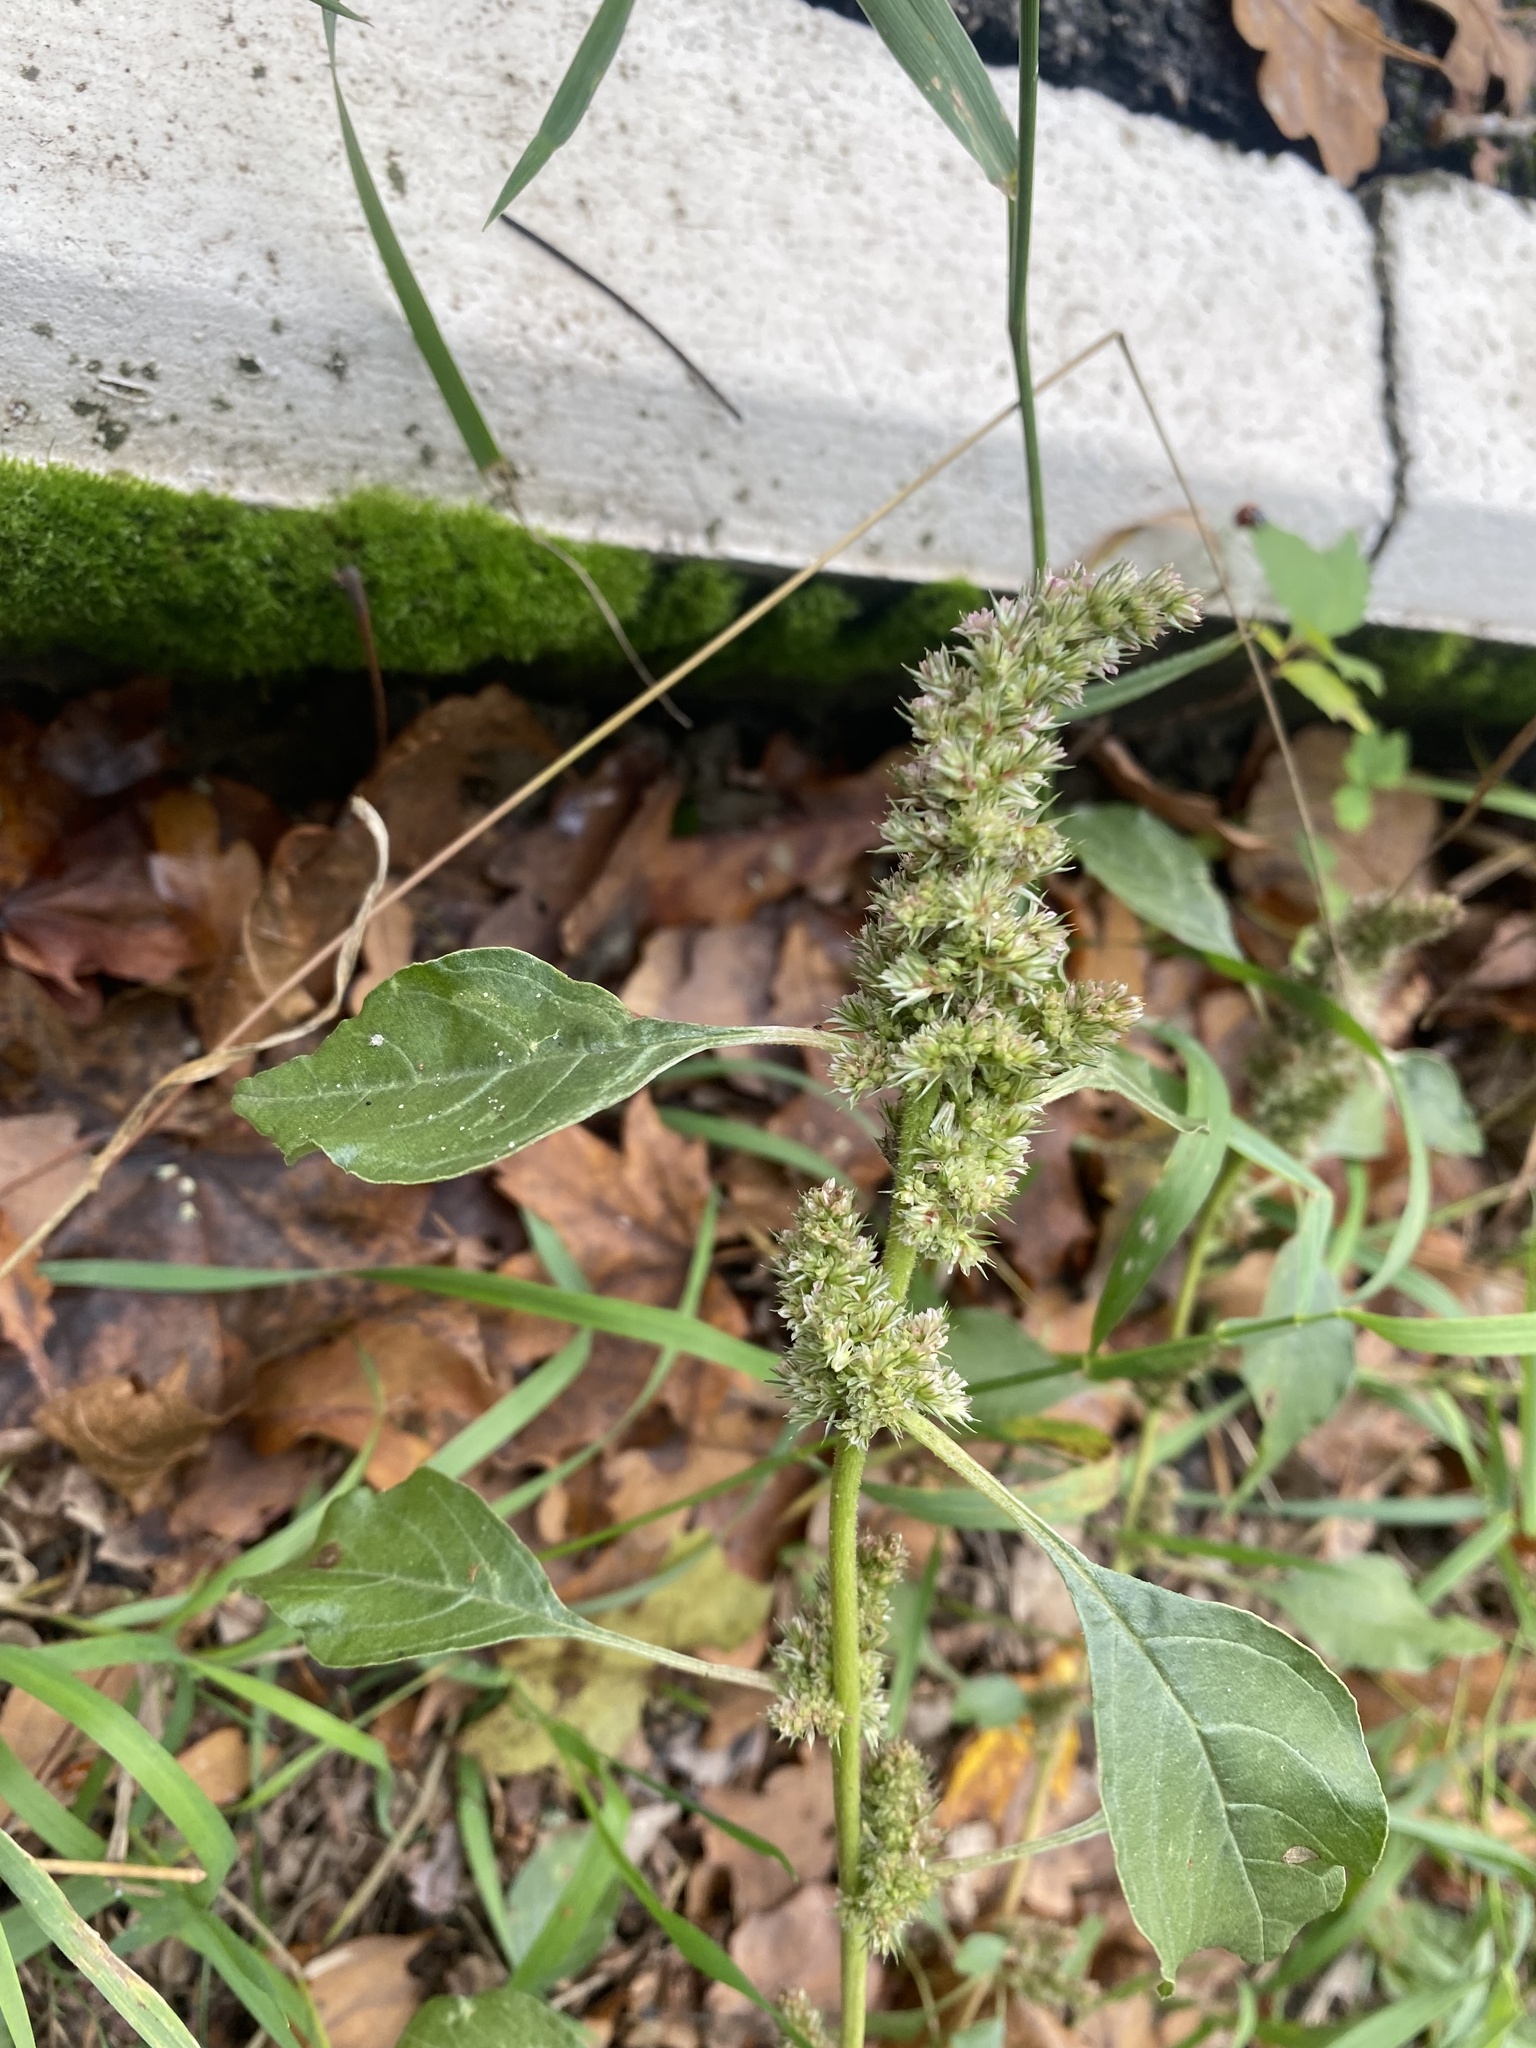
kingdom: Plantae
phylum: Tracheophyta
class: Magnoliopsida
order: Caryophyllales
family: Amaranthaceae
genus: Amaranthus
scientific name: Amaranthus retroflexus
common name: Redroot amaranth
